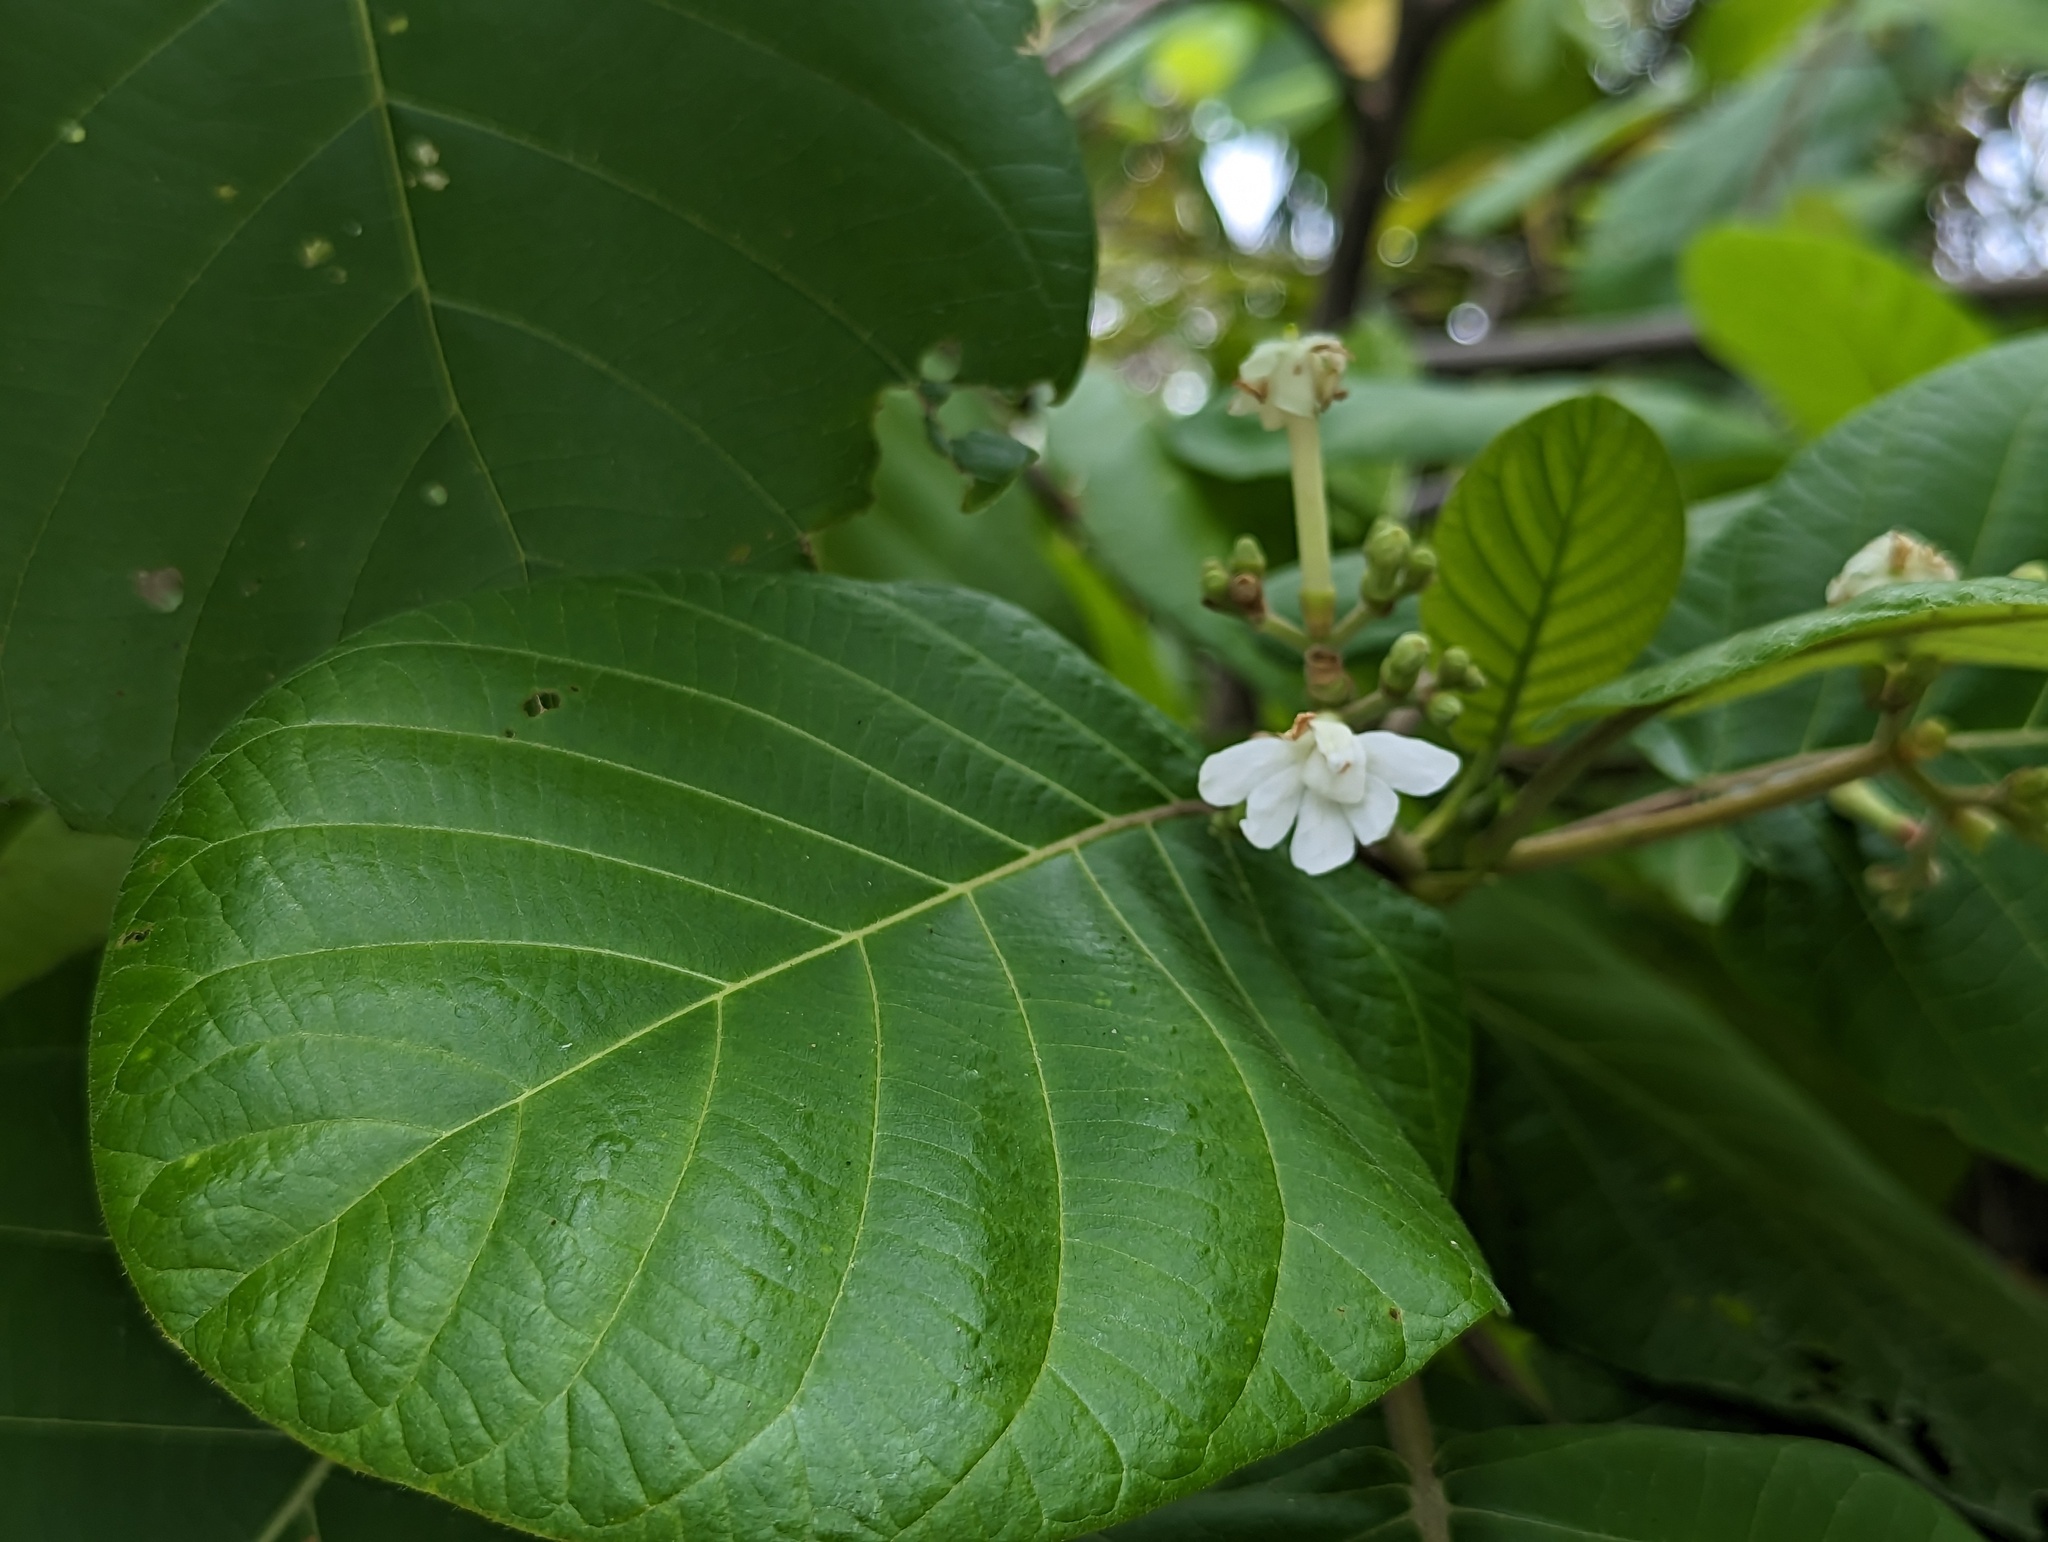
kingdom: Plantae
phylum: Tracheophyta
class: Magnoliopsida
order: Gentianales
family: Rubiaceae
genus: Guettarda
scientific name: Guettarda speciosa
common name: Sea randa
